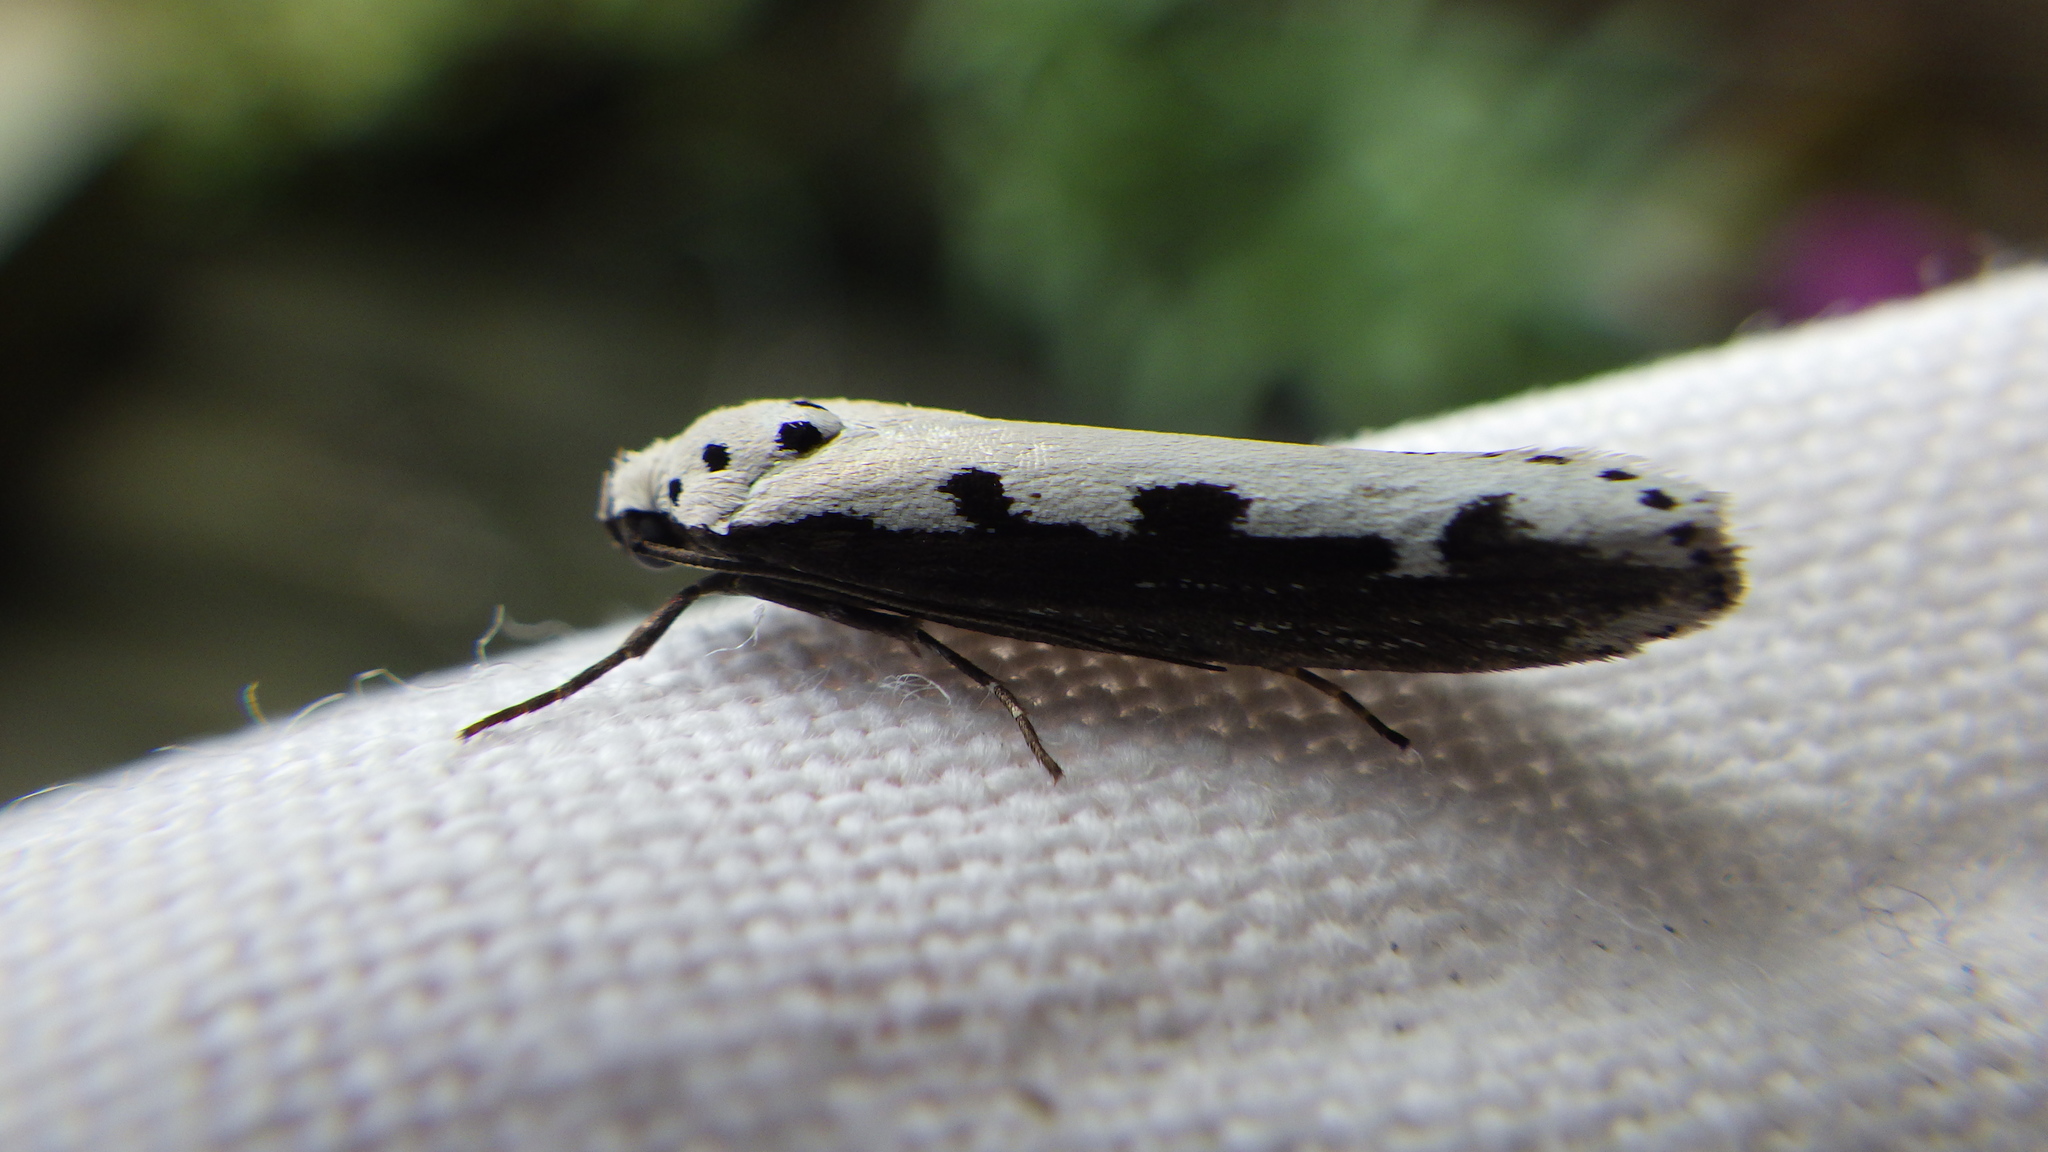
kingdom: Animalia
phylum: Arthropoda
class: Insecta
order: Lepidoptera
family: Ethmiidae
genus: Ethmia
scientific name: Ethmia bipunctella
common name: Bordered ermel
